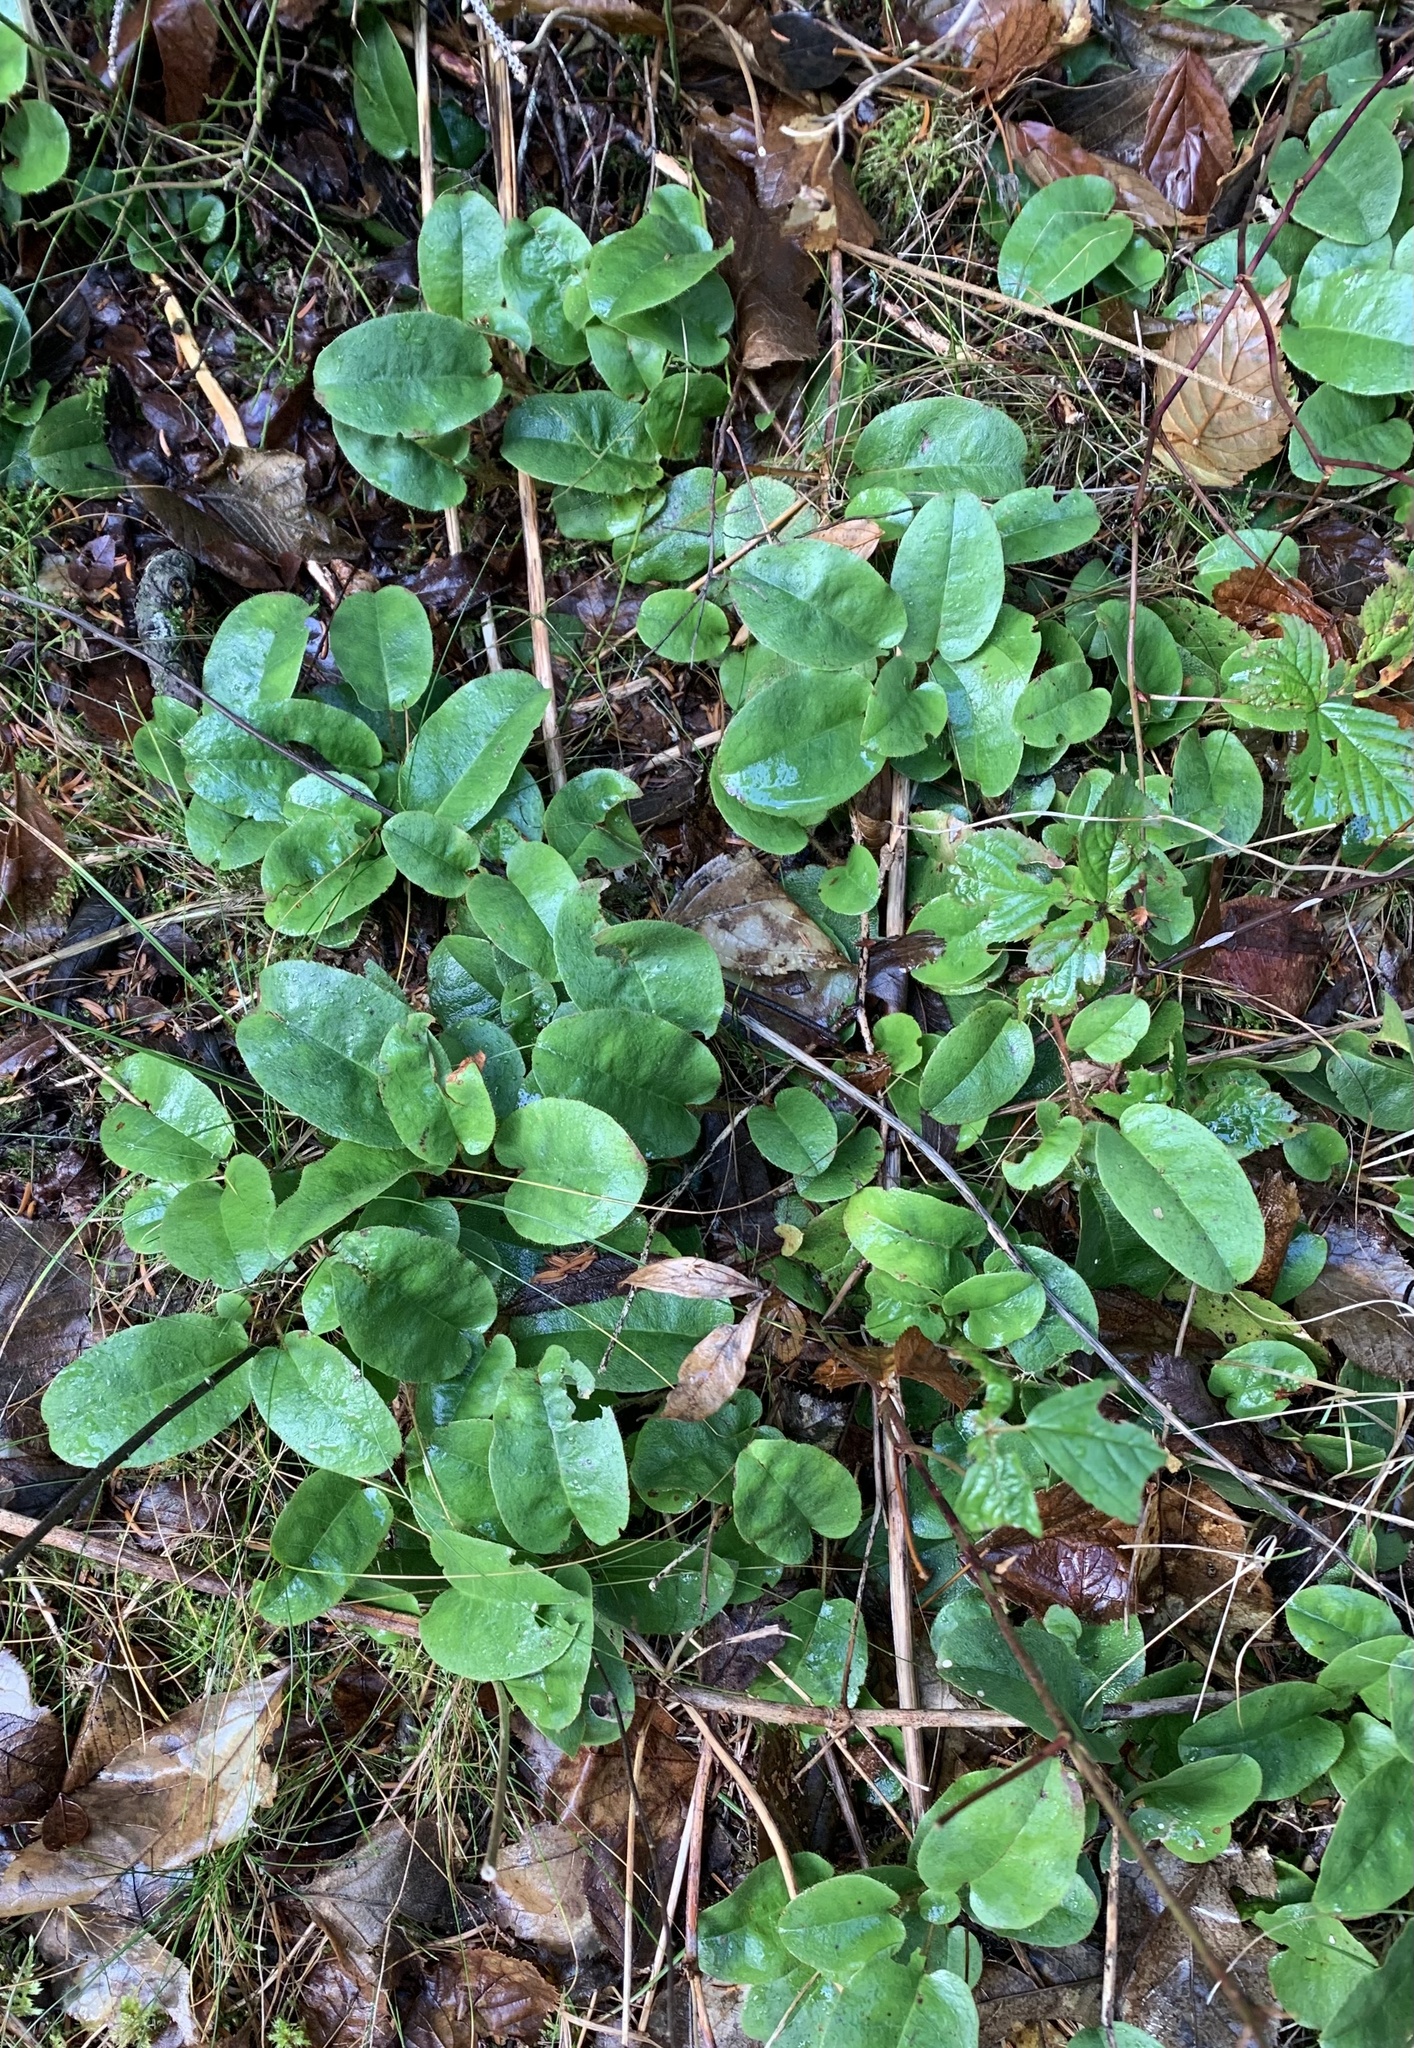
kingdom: Plantae
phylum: Tracheophyta
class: Magnoliopsida
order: Ericales
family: Ericaceae
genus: Epigaea
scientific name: Epigaea repens
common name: Gravelroot
